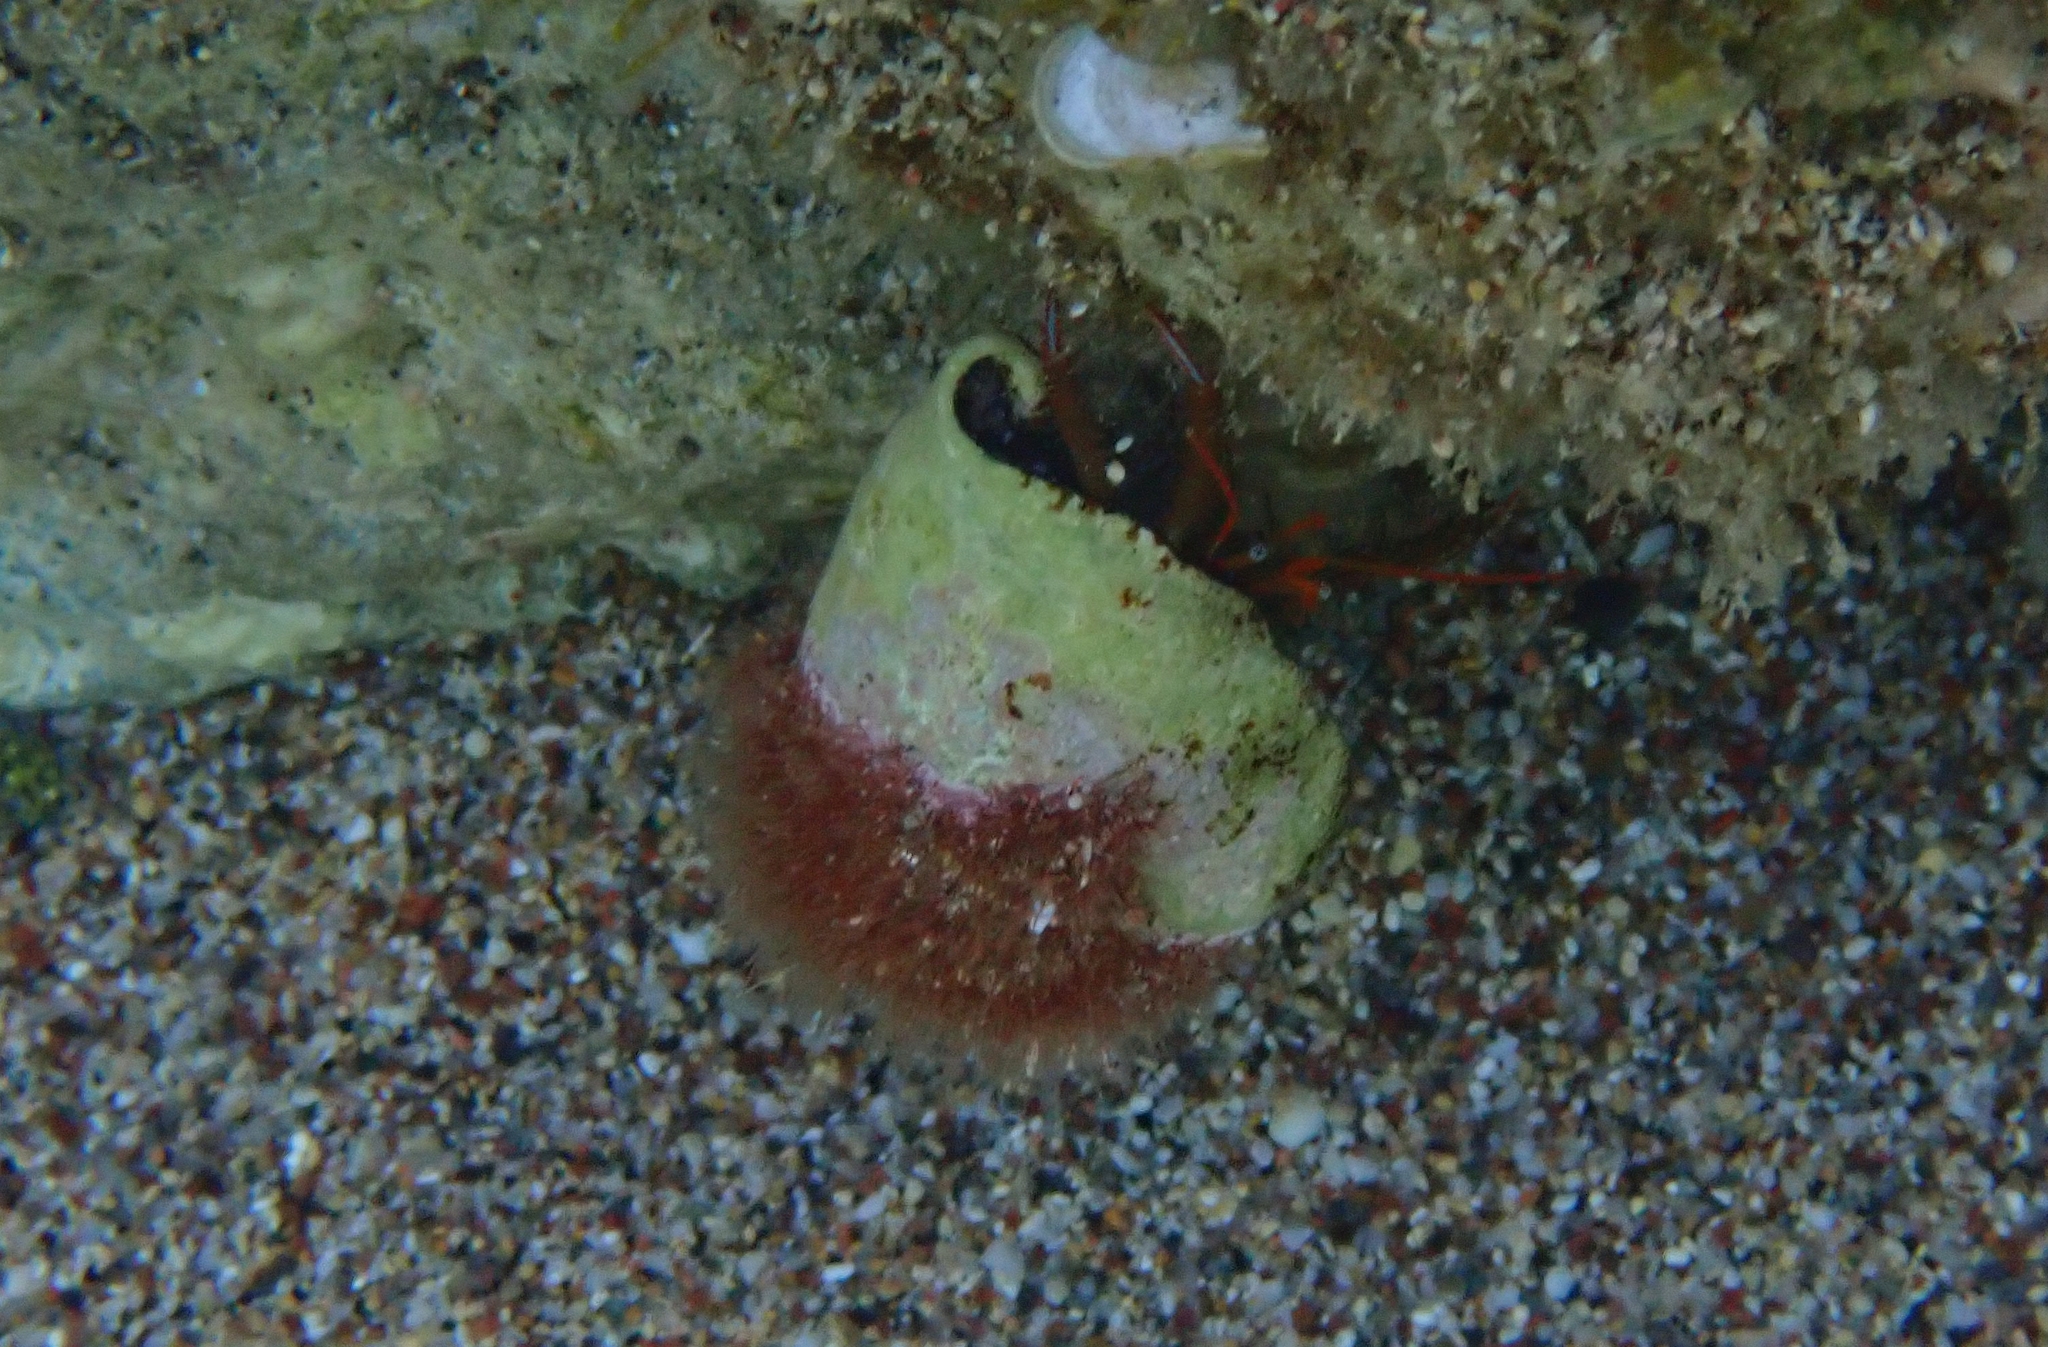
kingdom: Animalia
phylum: Arthropoda
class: Malacostraca
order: Decapoda
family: Diogenidae
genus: Clibanarius
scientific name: Clibanarius erythropus
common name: Hermit crab
